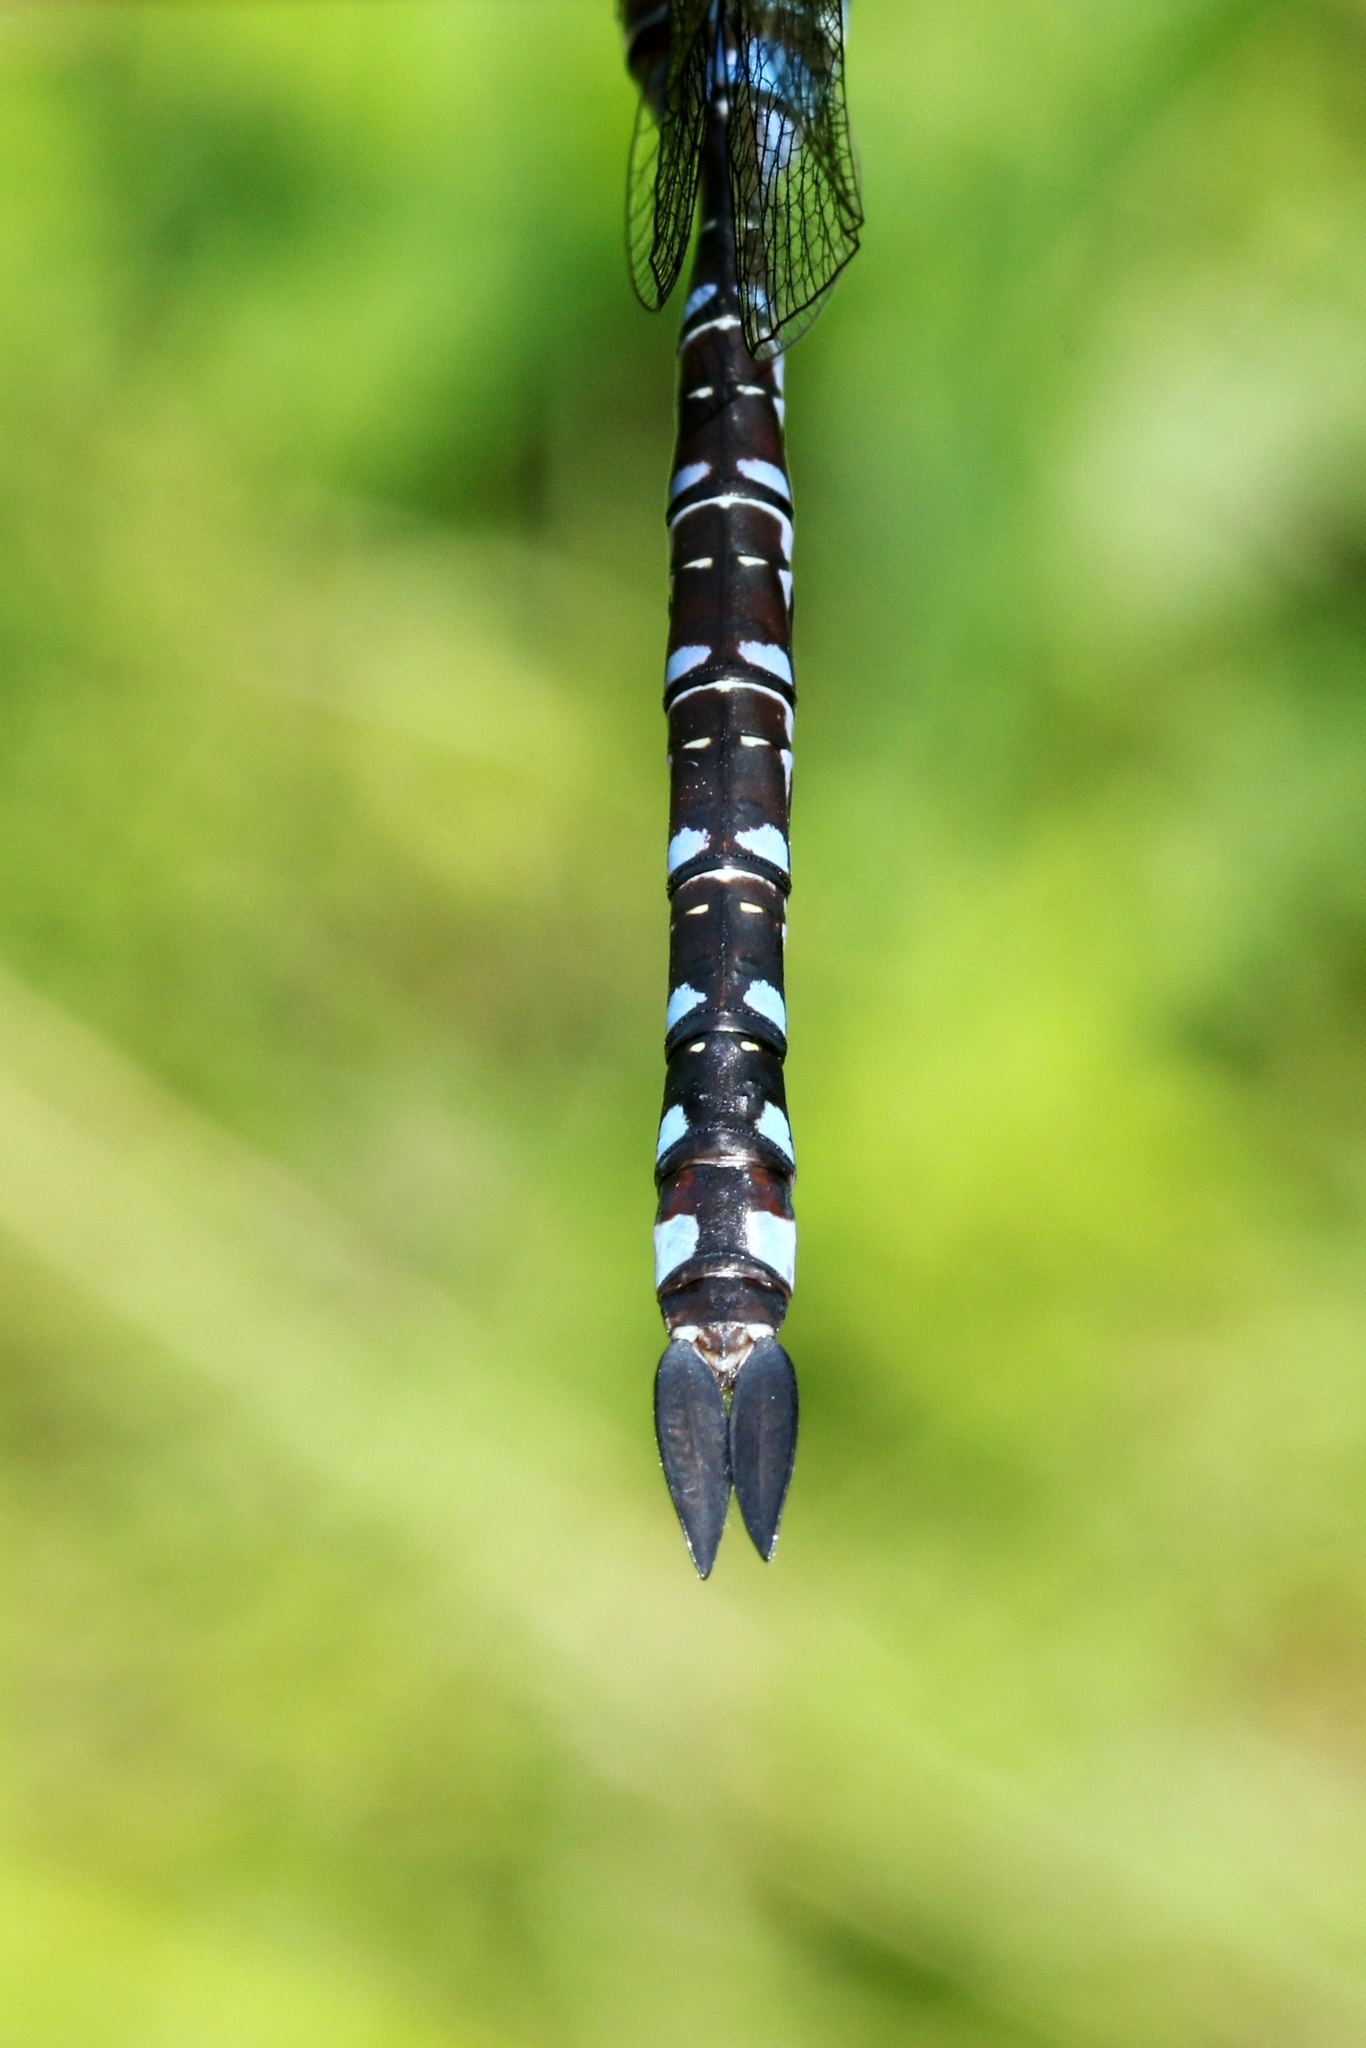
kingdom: Animalia
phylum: Arthropoda
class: Insecta
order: Odonata
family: Aeshnidae
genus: Aeshna
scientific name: Aeshna constricta
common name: Lance-tipped darner
